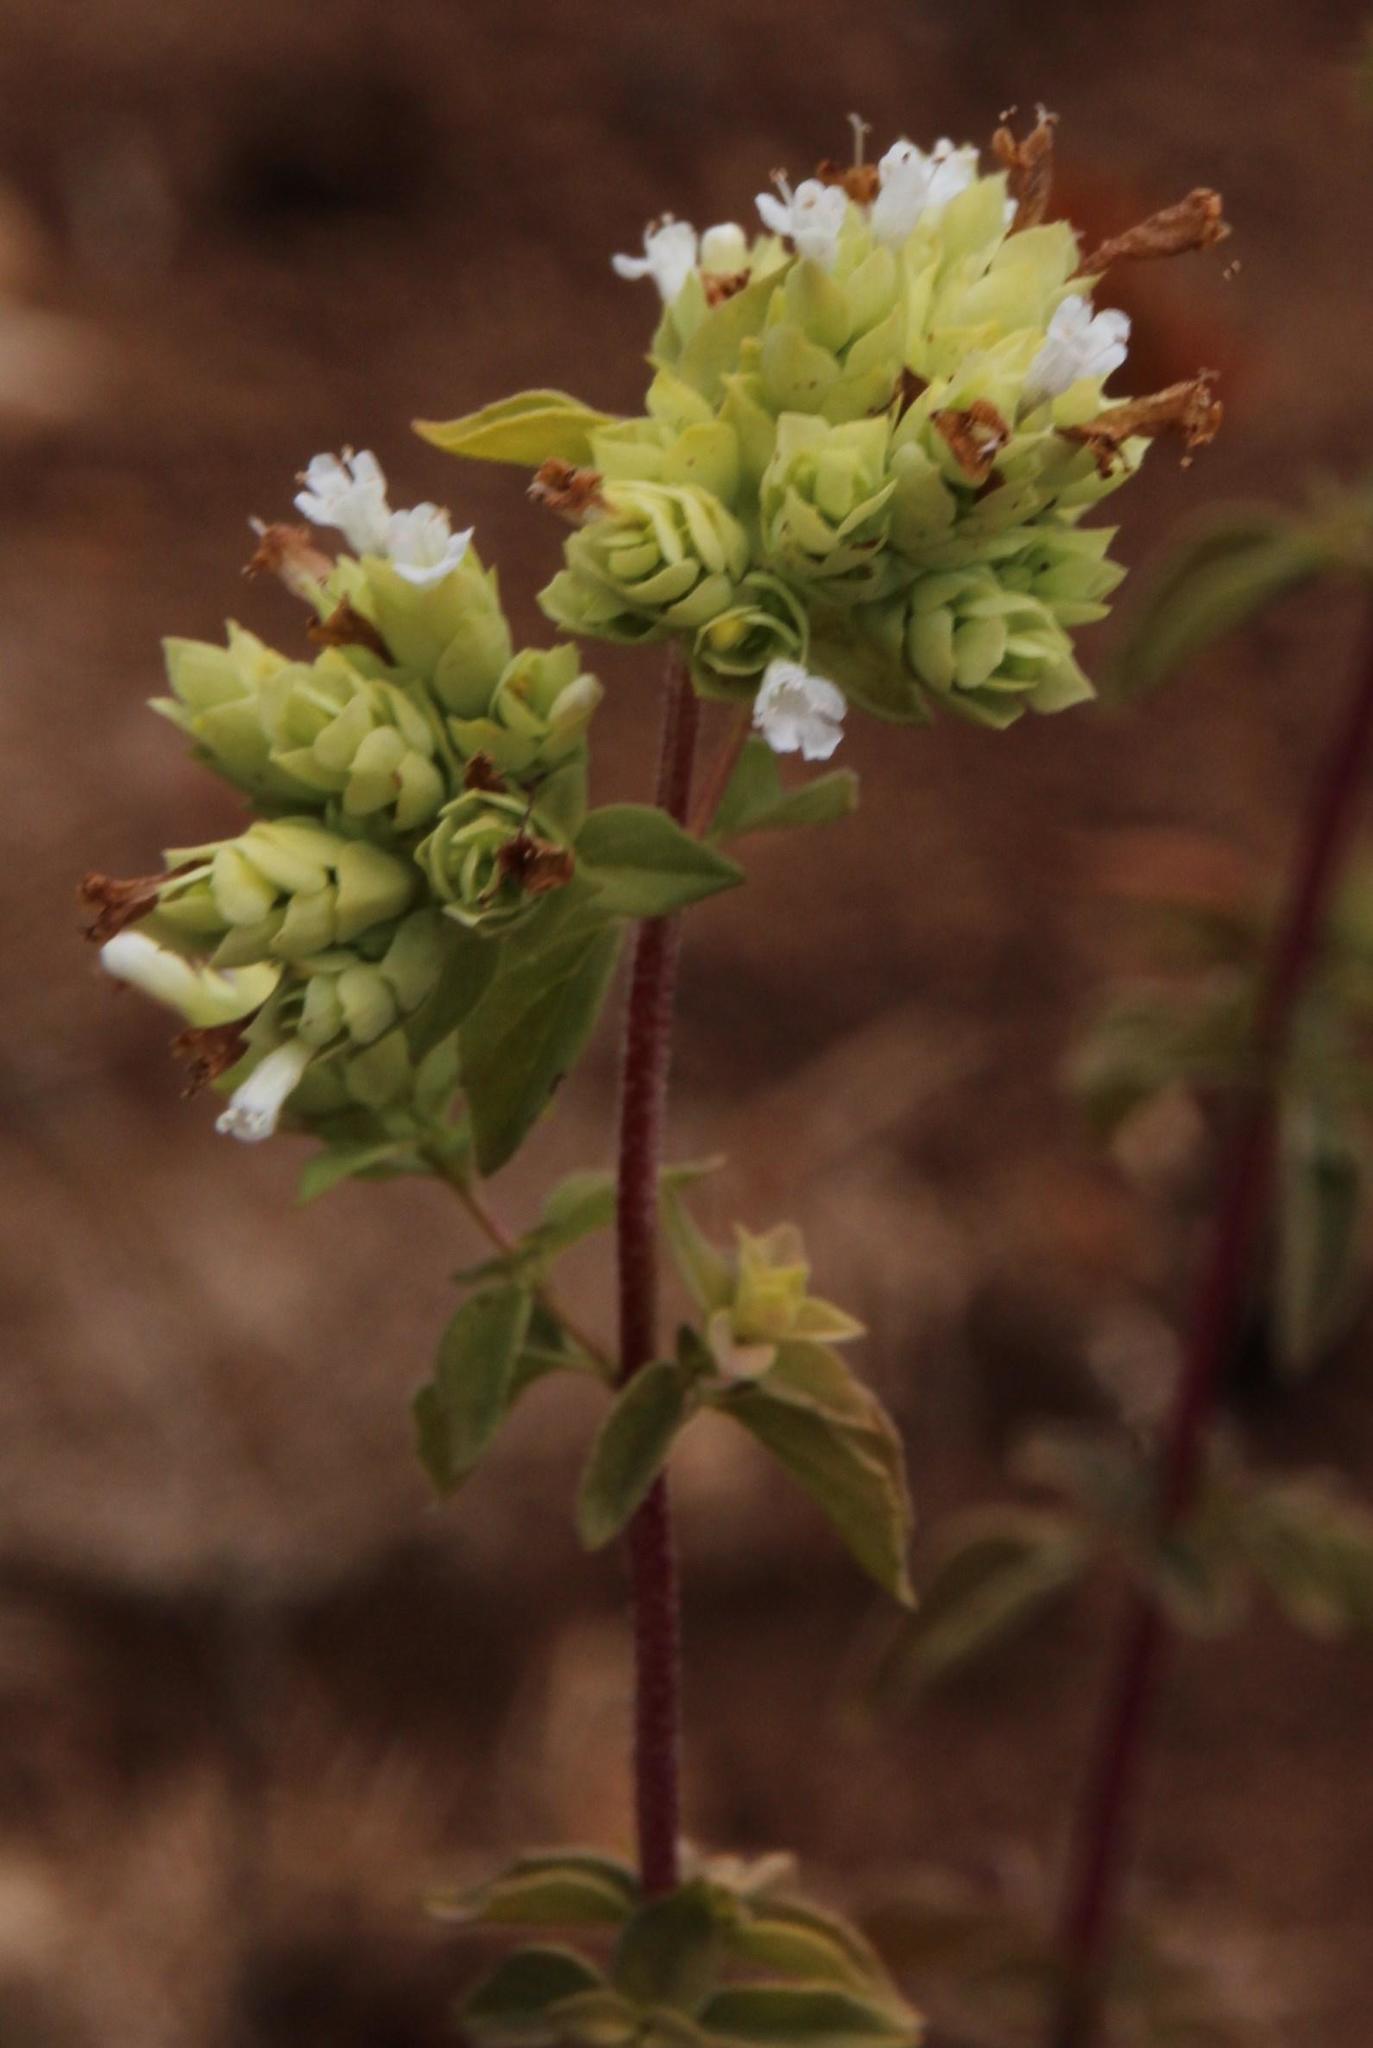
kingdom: Plantae
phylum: Tracheophyta
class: Magnoliopsida
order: Lamiales
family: Lamiaceae
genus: Origanum
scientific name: Origanum vulgare
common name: Wild marjoram
